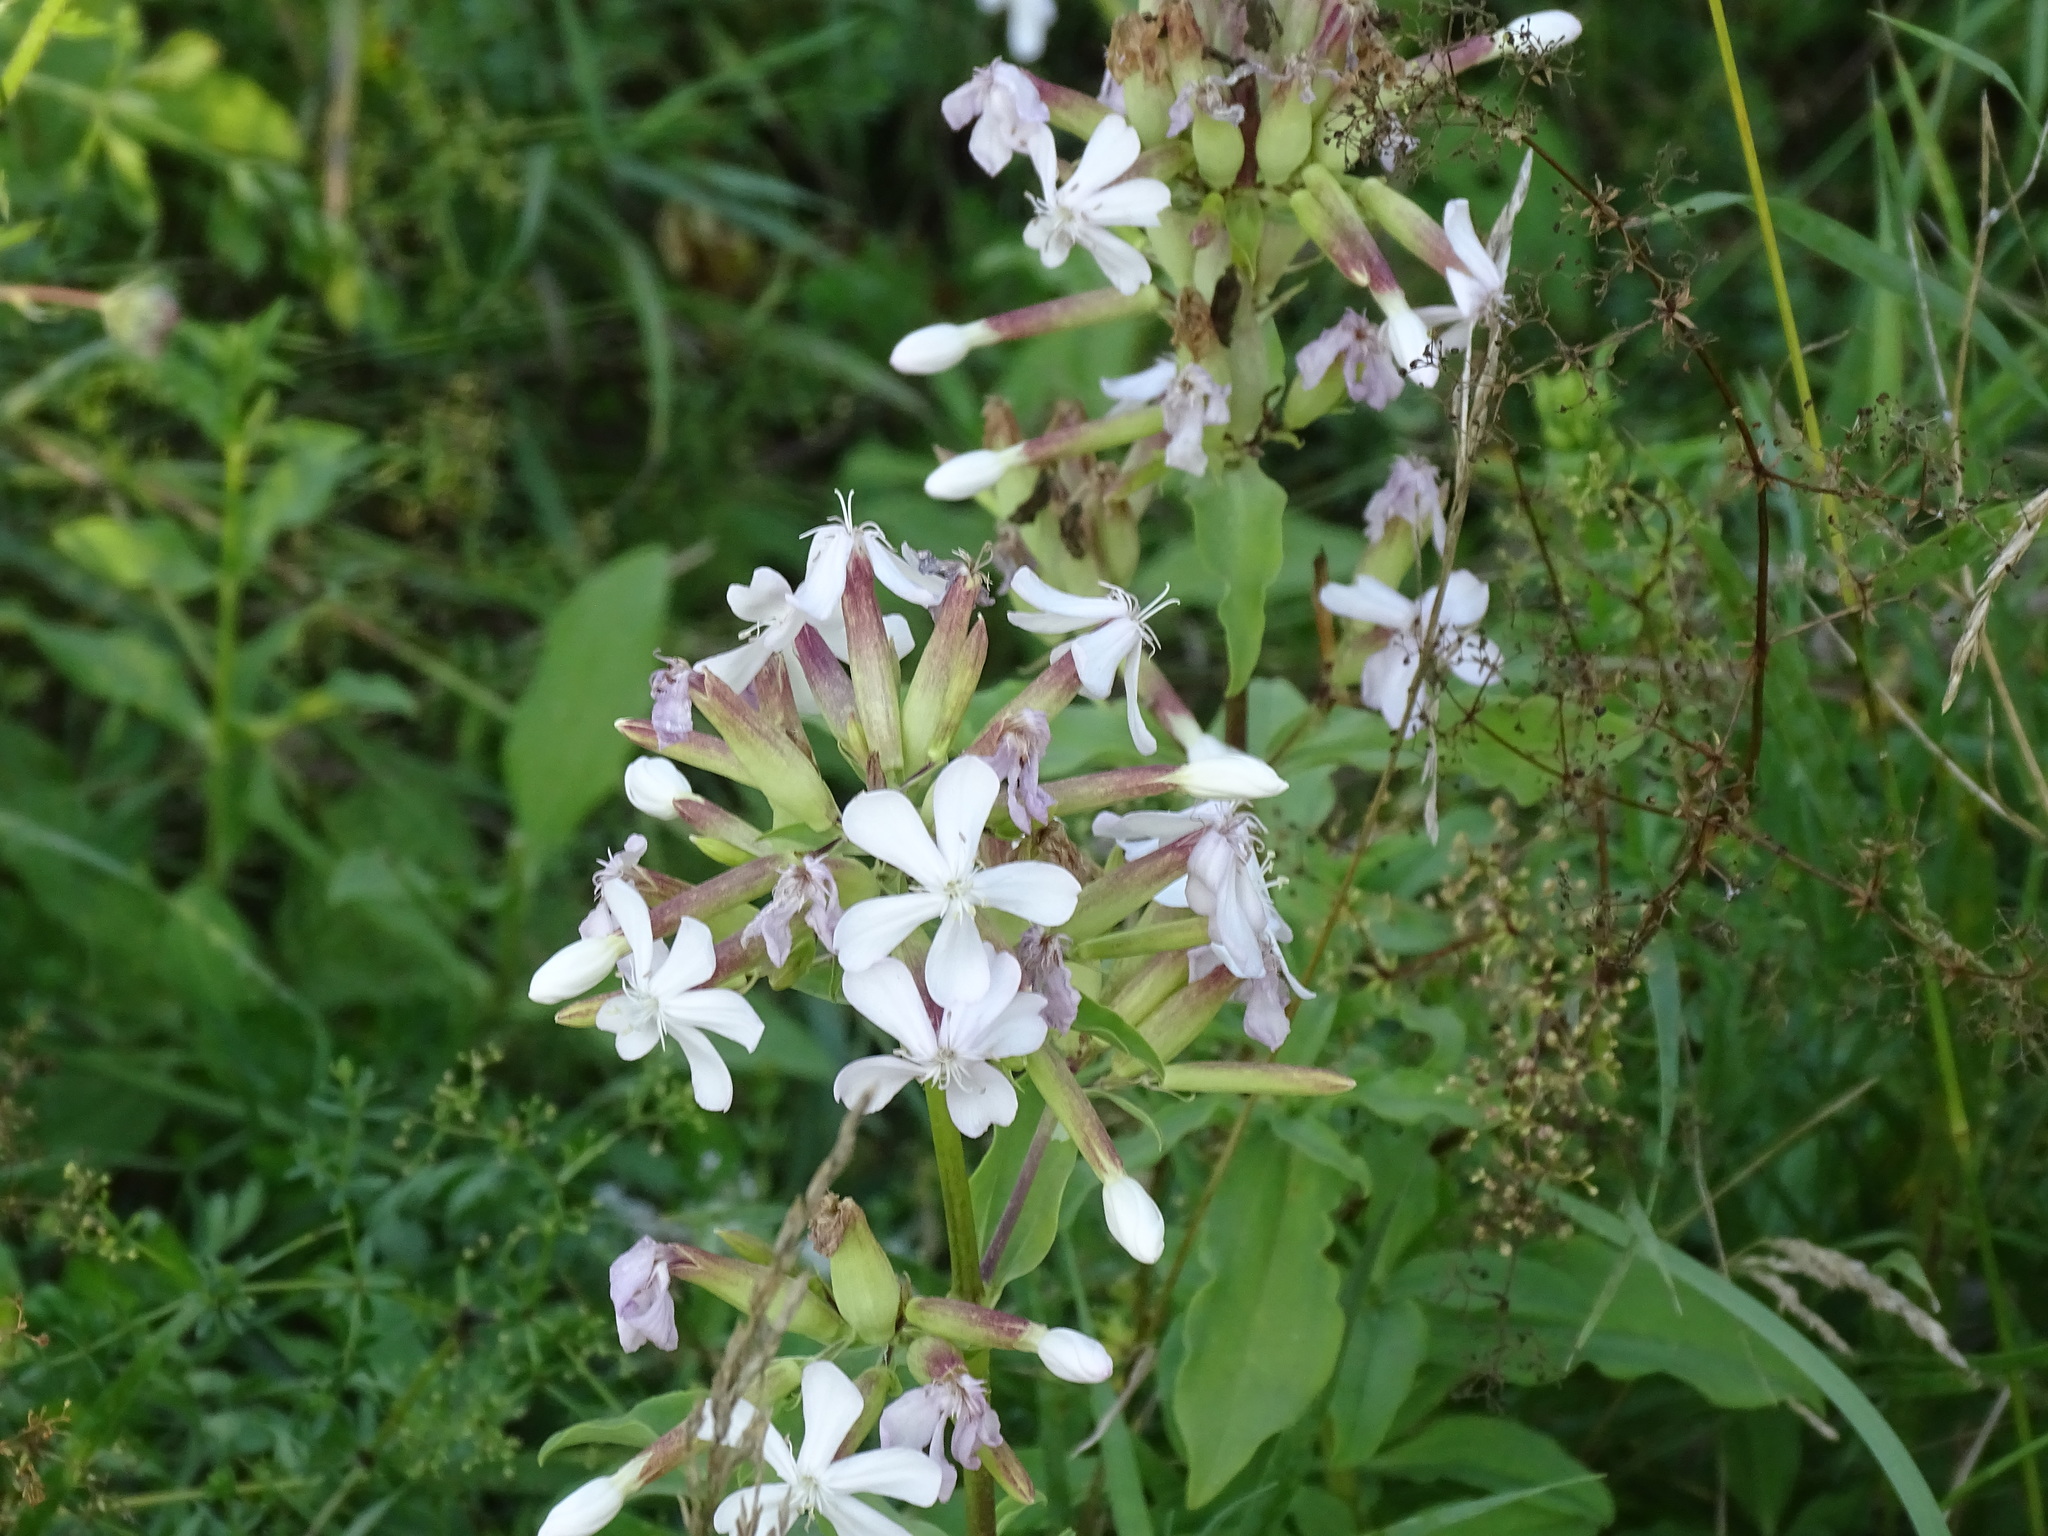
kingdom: Plantae
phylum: Tracheophyta
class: Magnoliopsida
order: Caryophyllales
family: Caryophyllaceae
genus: Saponaria
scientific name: Saponaria officinalis
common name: Soapwort
